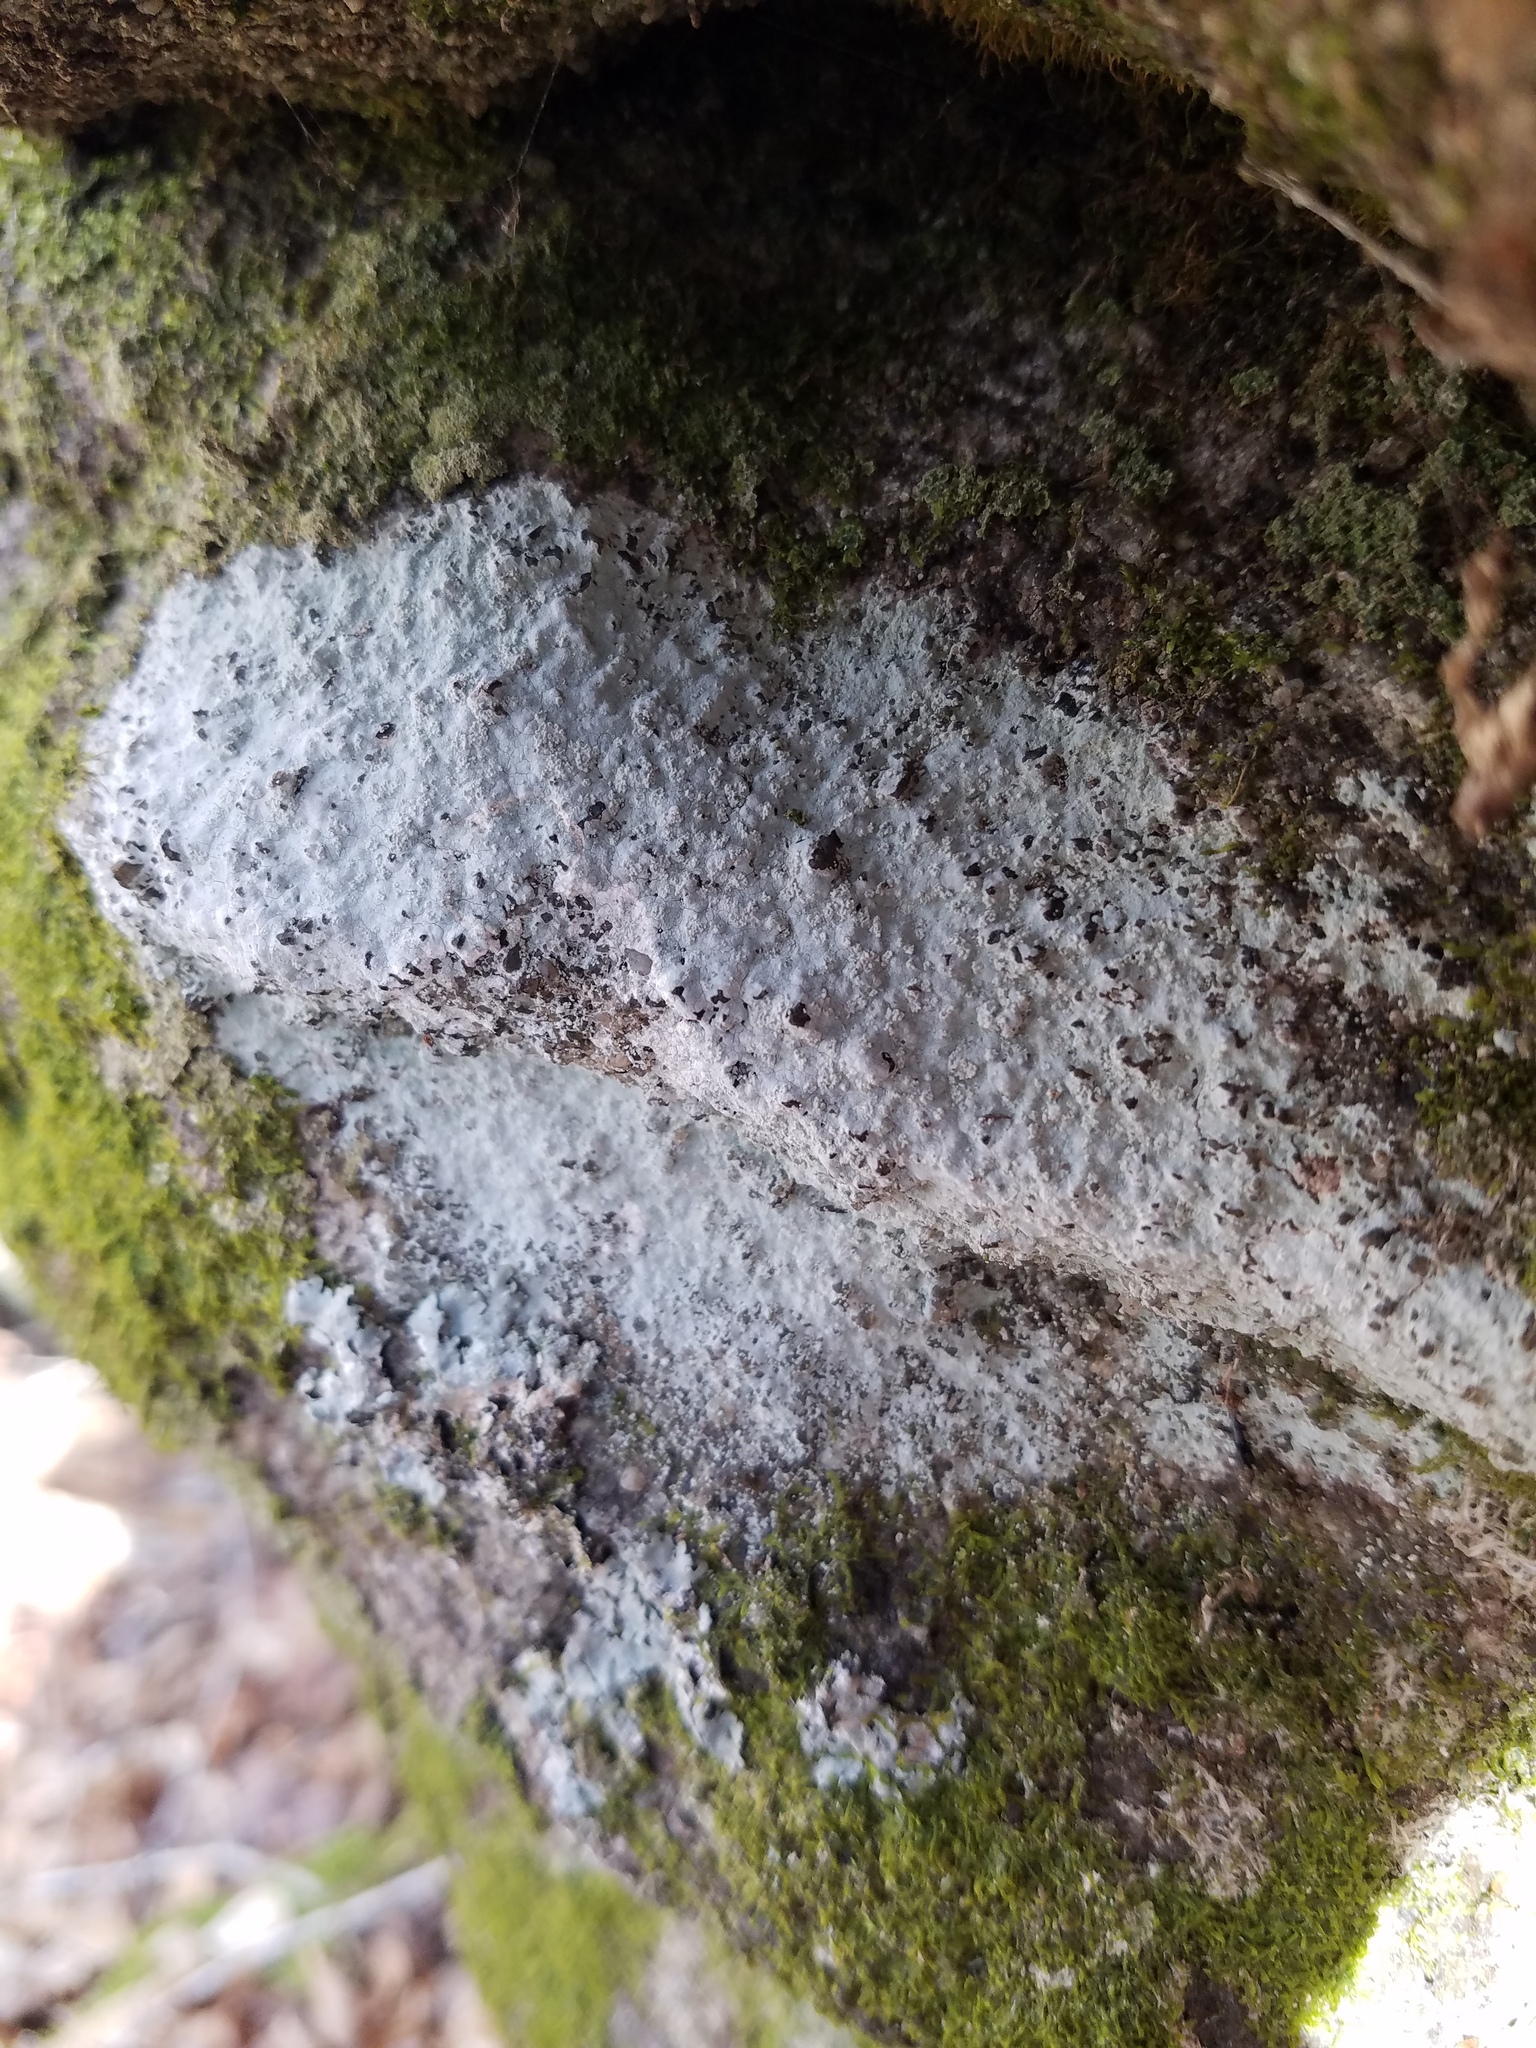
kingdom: Fungi
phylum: Ascomycota
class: Lecanoromycetes
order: Ostropales
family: Phlyctidaceae
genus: Phlyctis
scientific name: Phlyctis petraea
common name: Eggshell rock blaze
